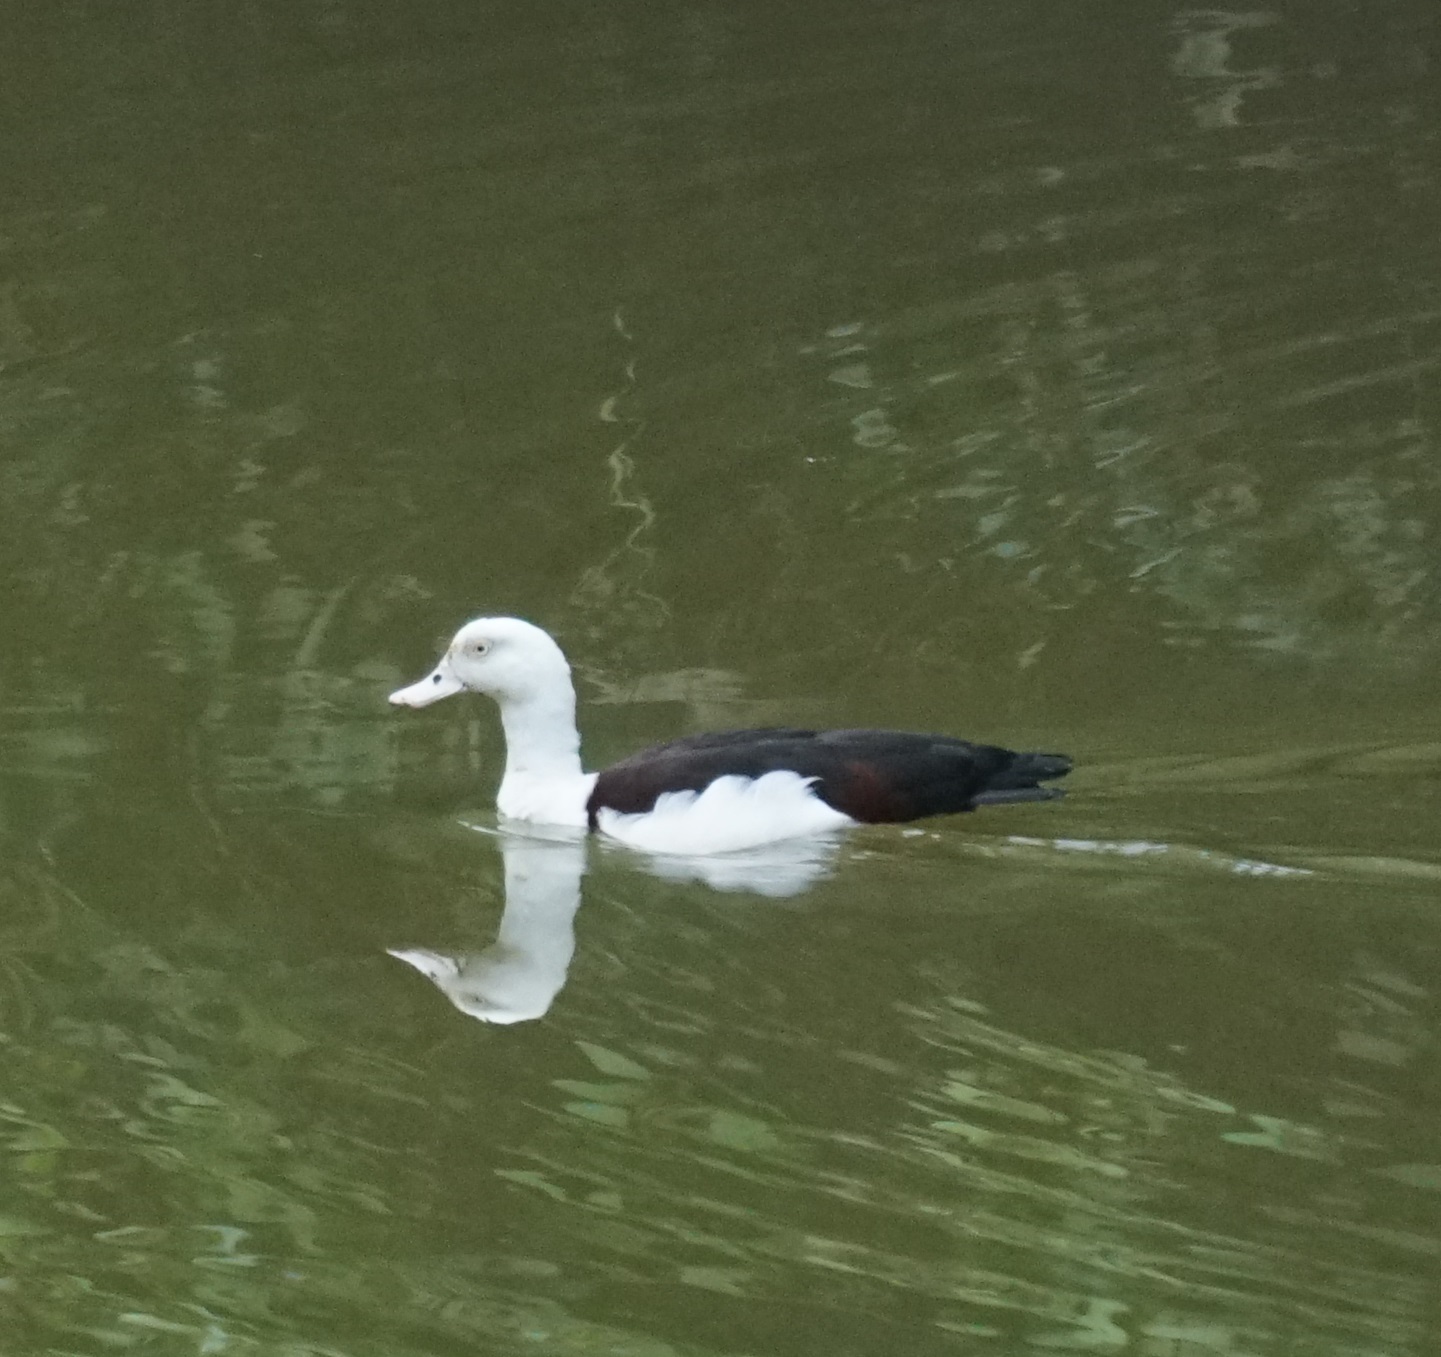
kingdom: Animalia
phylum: Chordata
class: Aves
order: Anseriformes
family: Anatidae
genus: Radjah
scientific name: Radjah radjah
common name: Radjah shelduck
